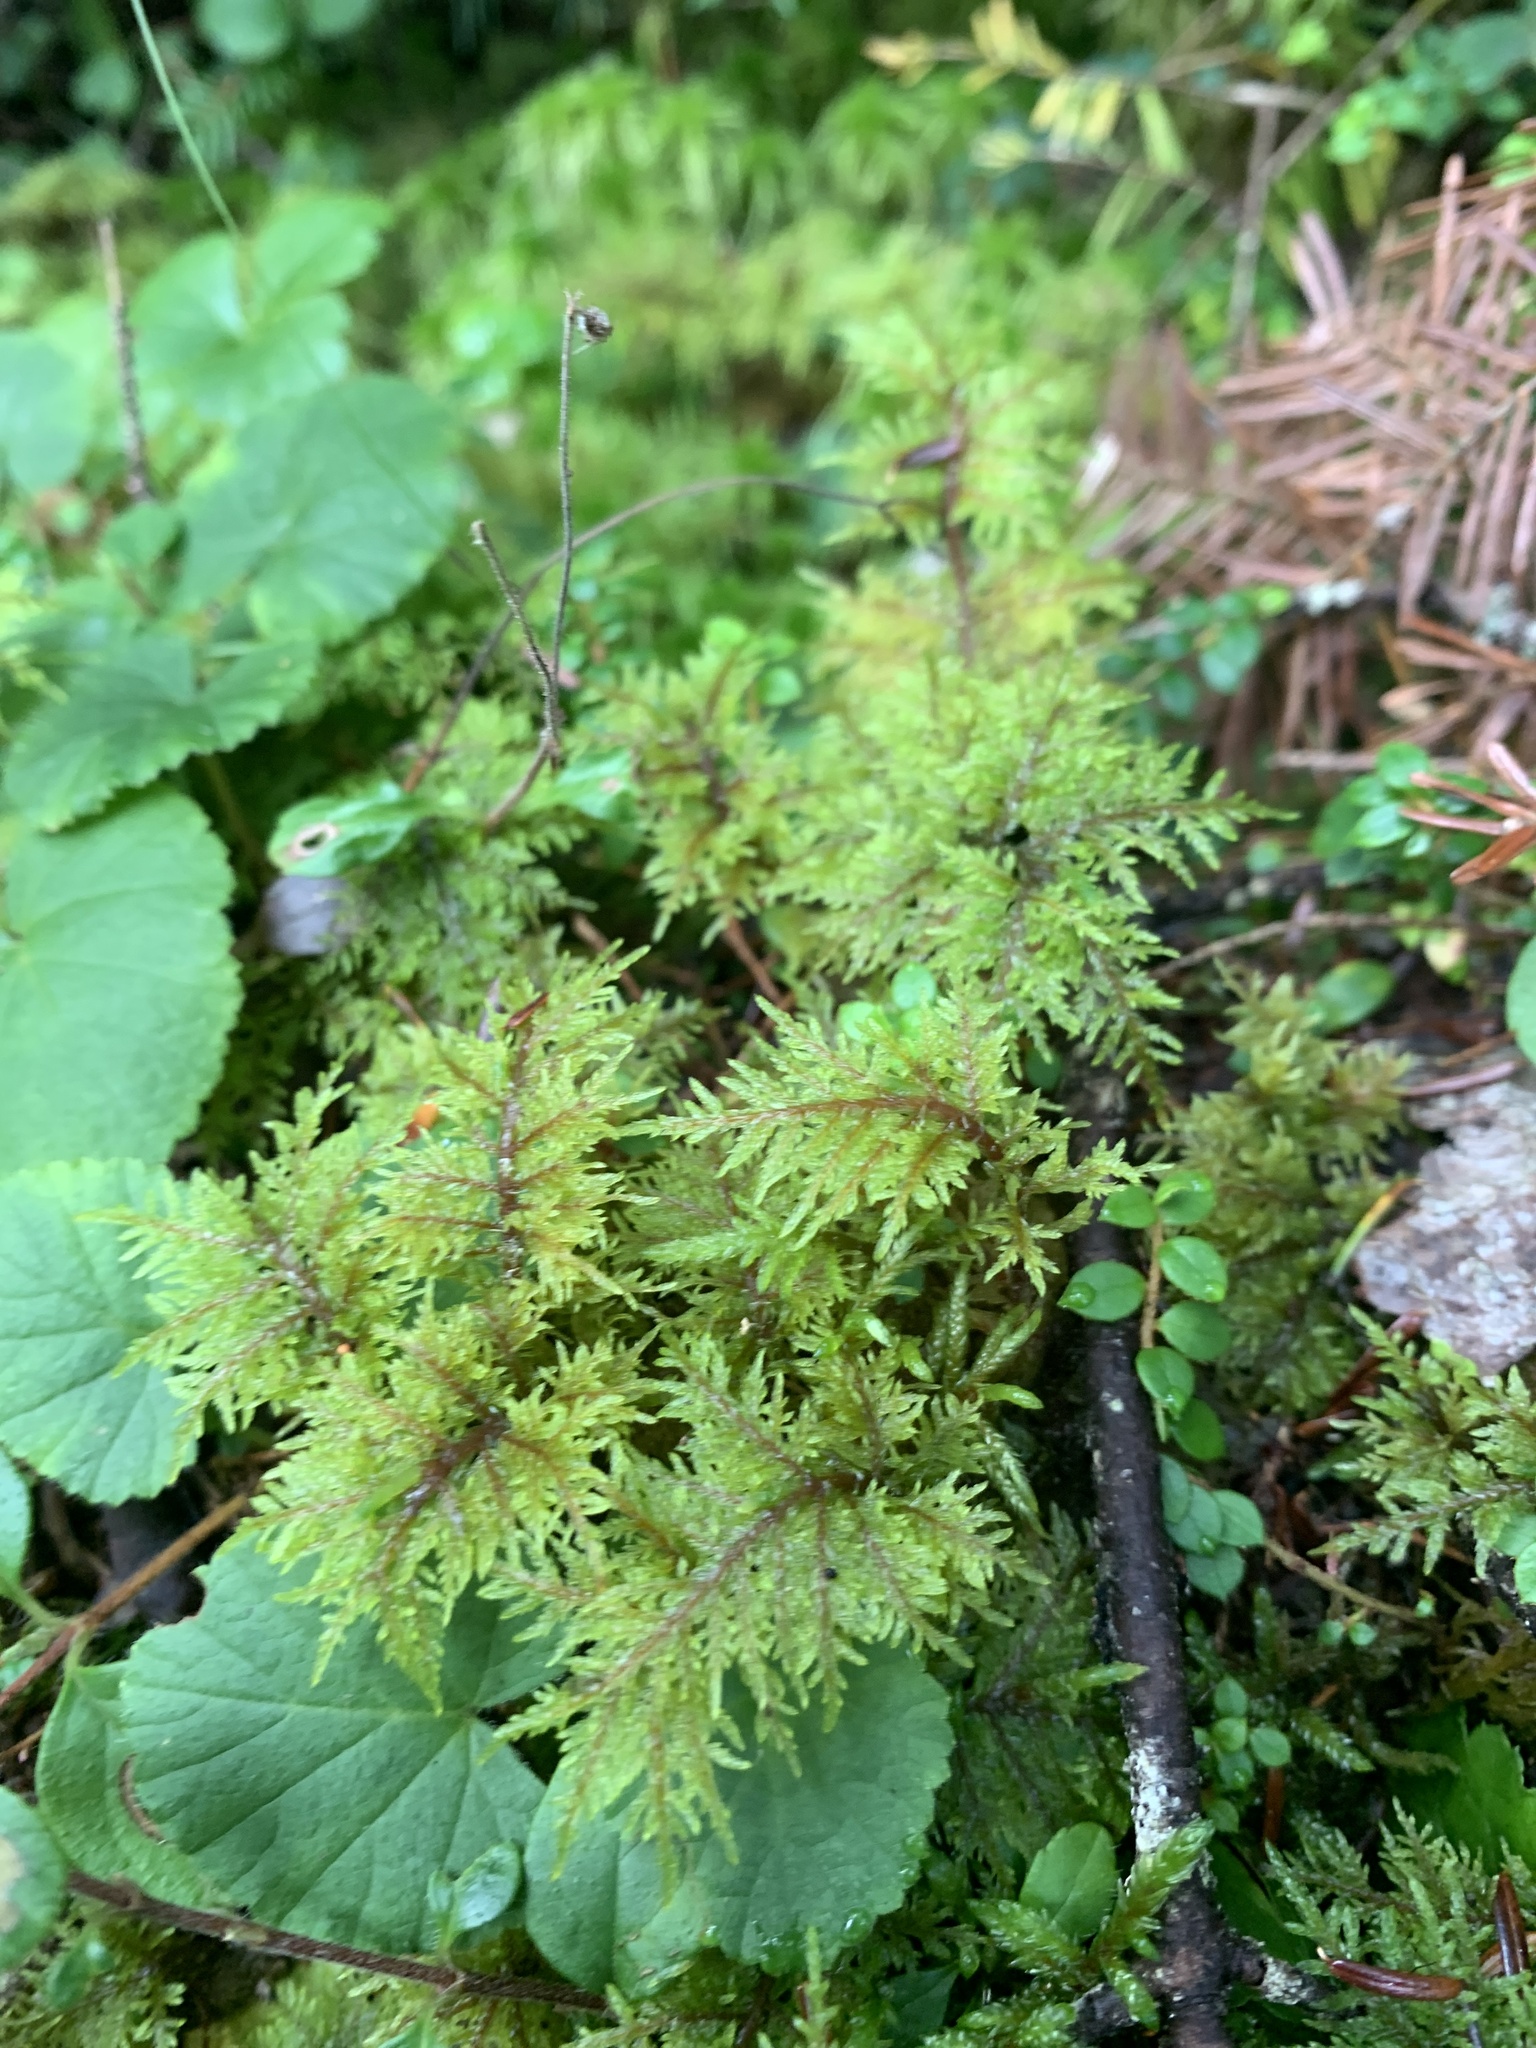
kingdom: Plantae
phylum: Bryophyta
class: Bryopsida
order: Hypnales
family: Hylocomiaceae
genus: Hylocomium
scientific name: Hylocomium splendens
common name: Stairstep moss
